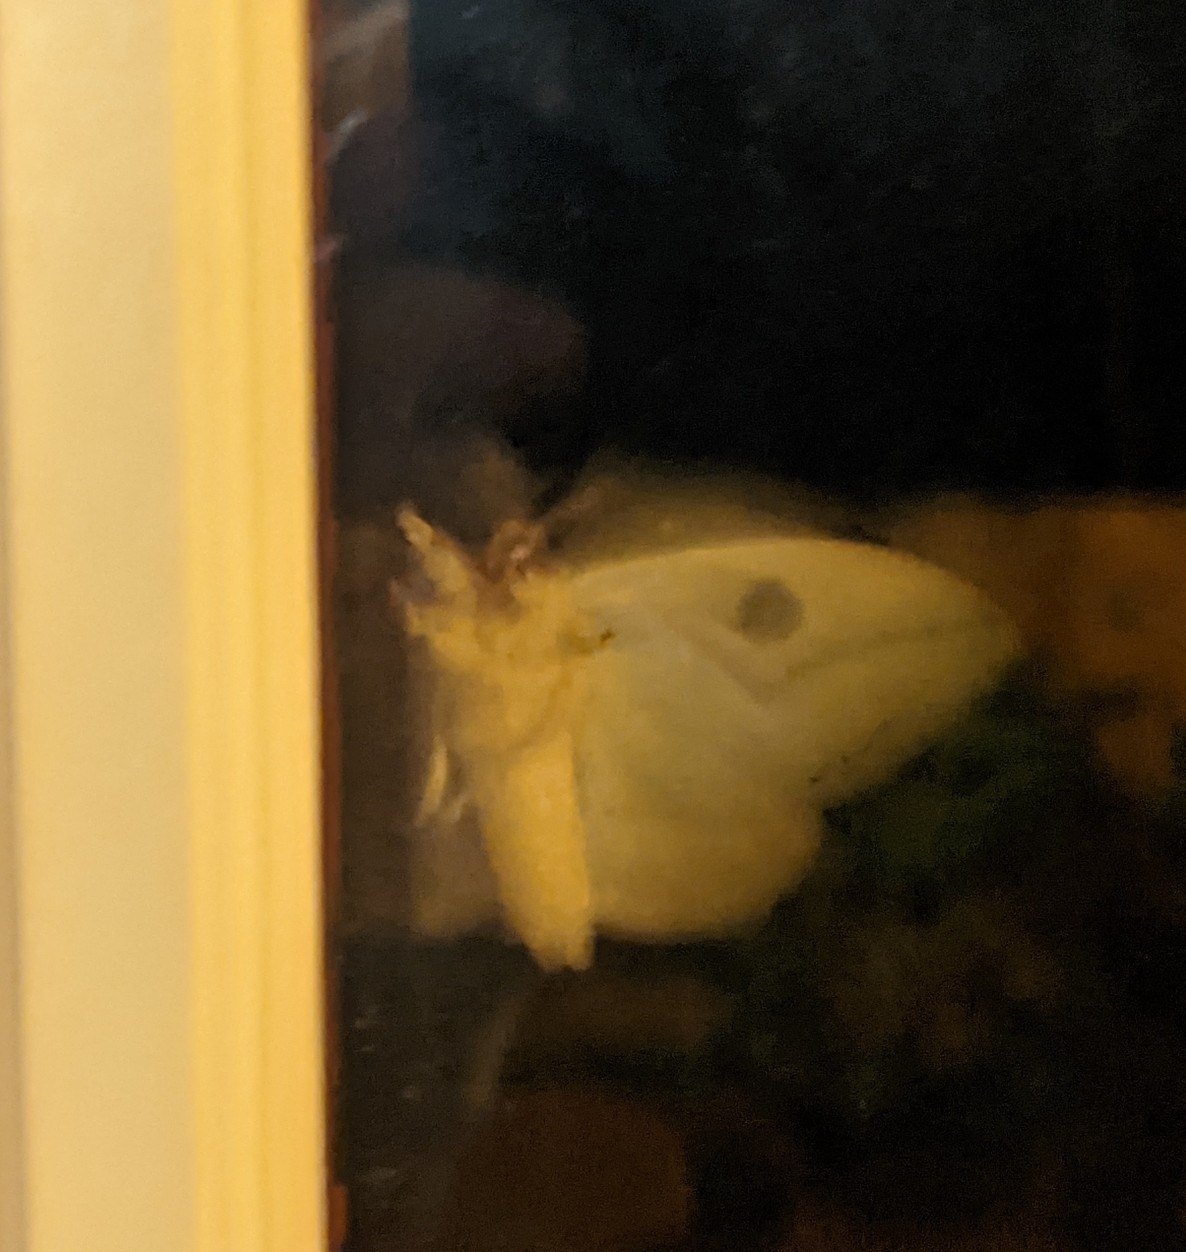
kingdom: Animalia
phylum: Arthropoda
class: Insecta
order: Lepidoptera
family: Saturniidae
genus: Automeris
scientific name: Automeris io
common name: Io moth
